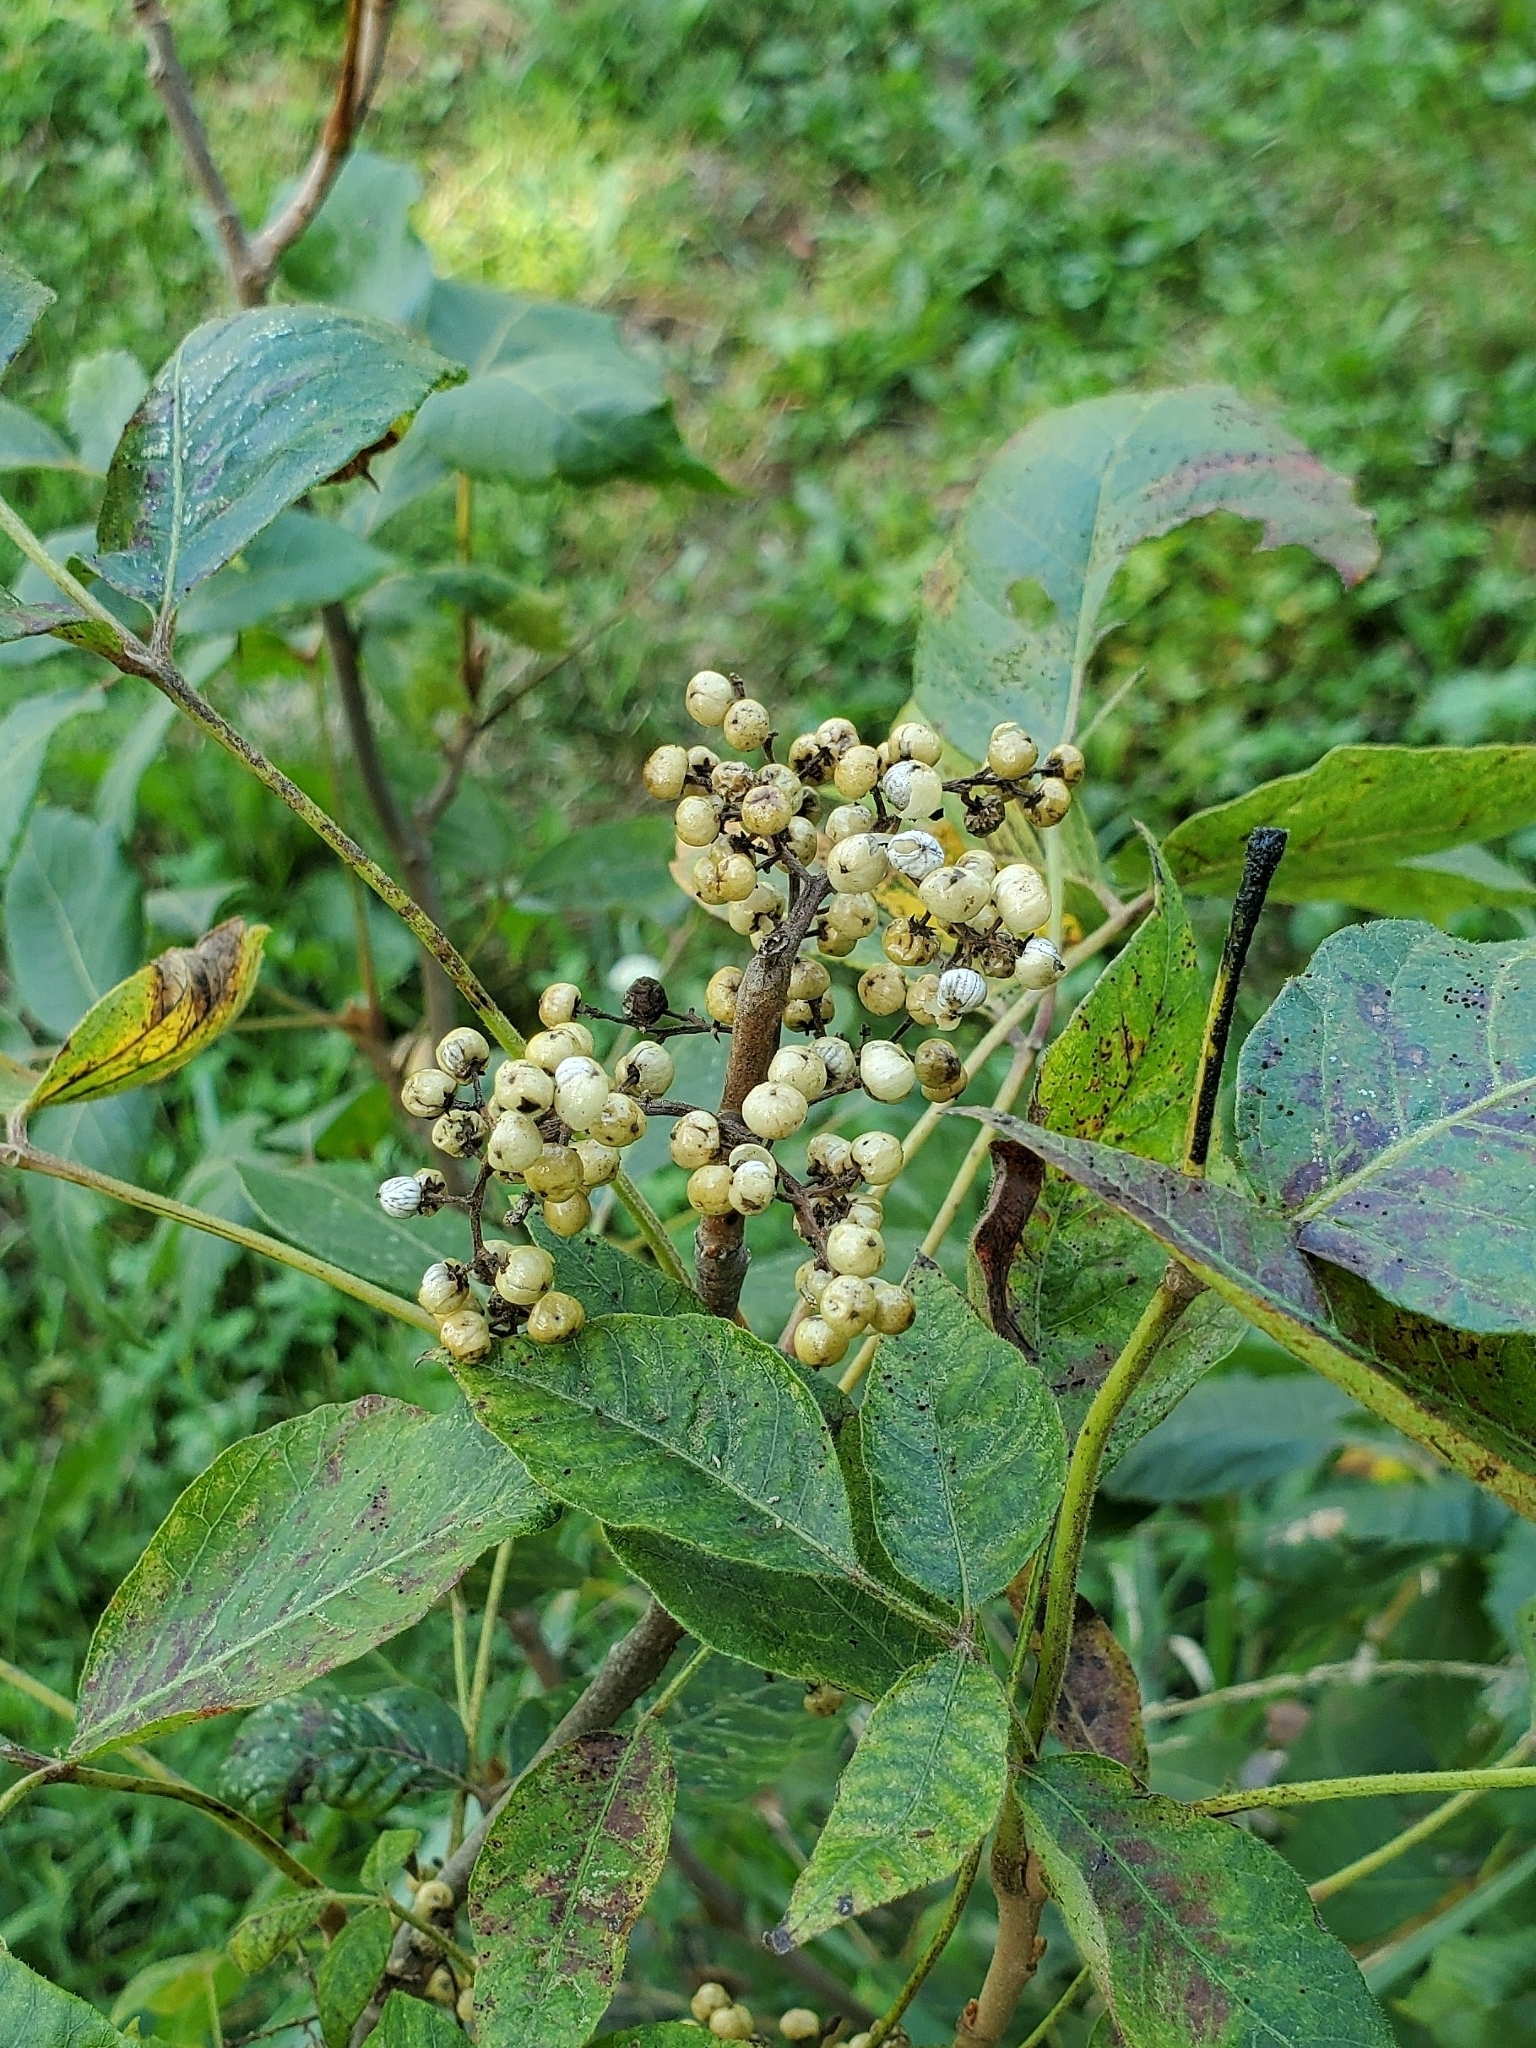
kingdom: Plantae
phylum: Tracheophyta
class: Magnoliopsida
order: Sapindales
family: Anacardiaceae
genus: Toxicodendron
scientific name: Toxicodendron radicans
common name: Poison ivy
